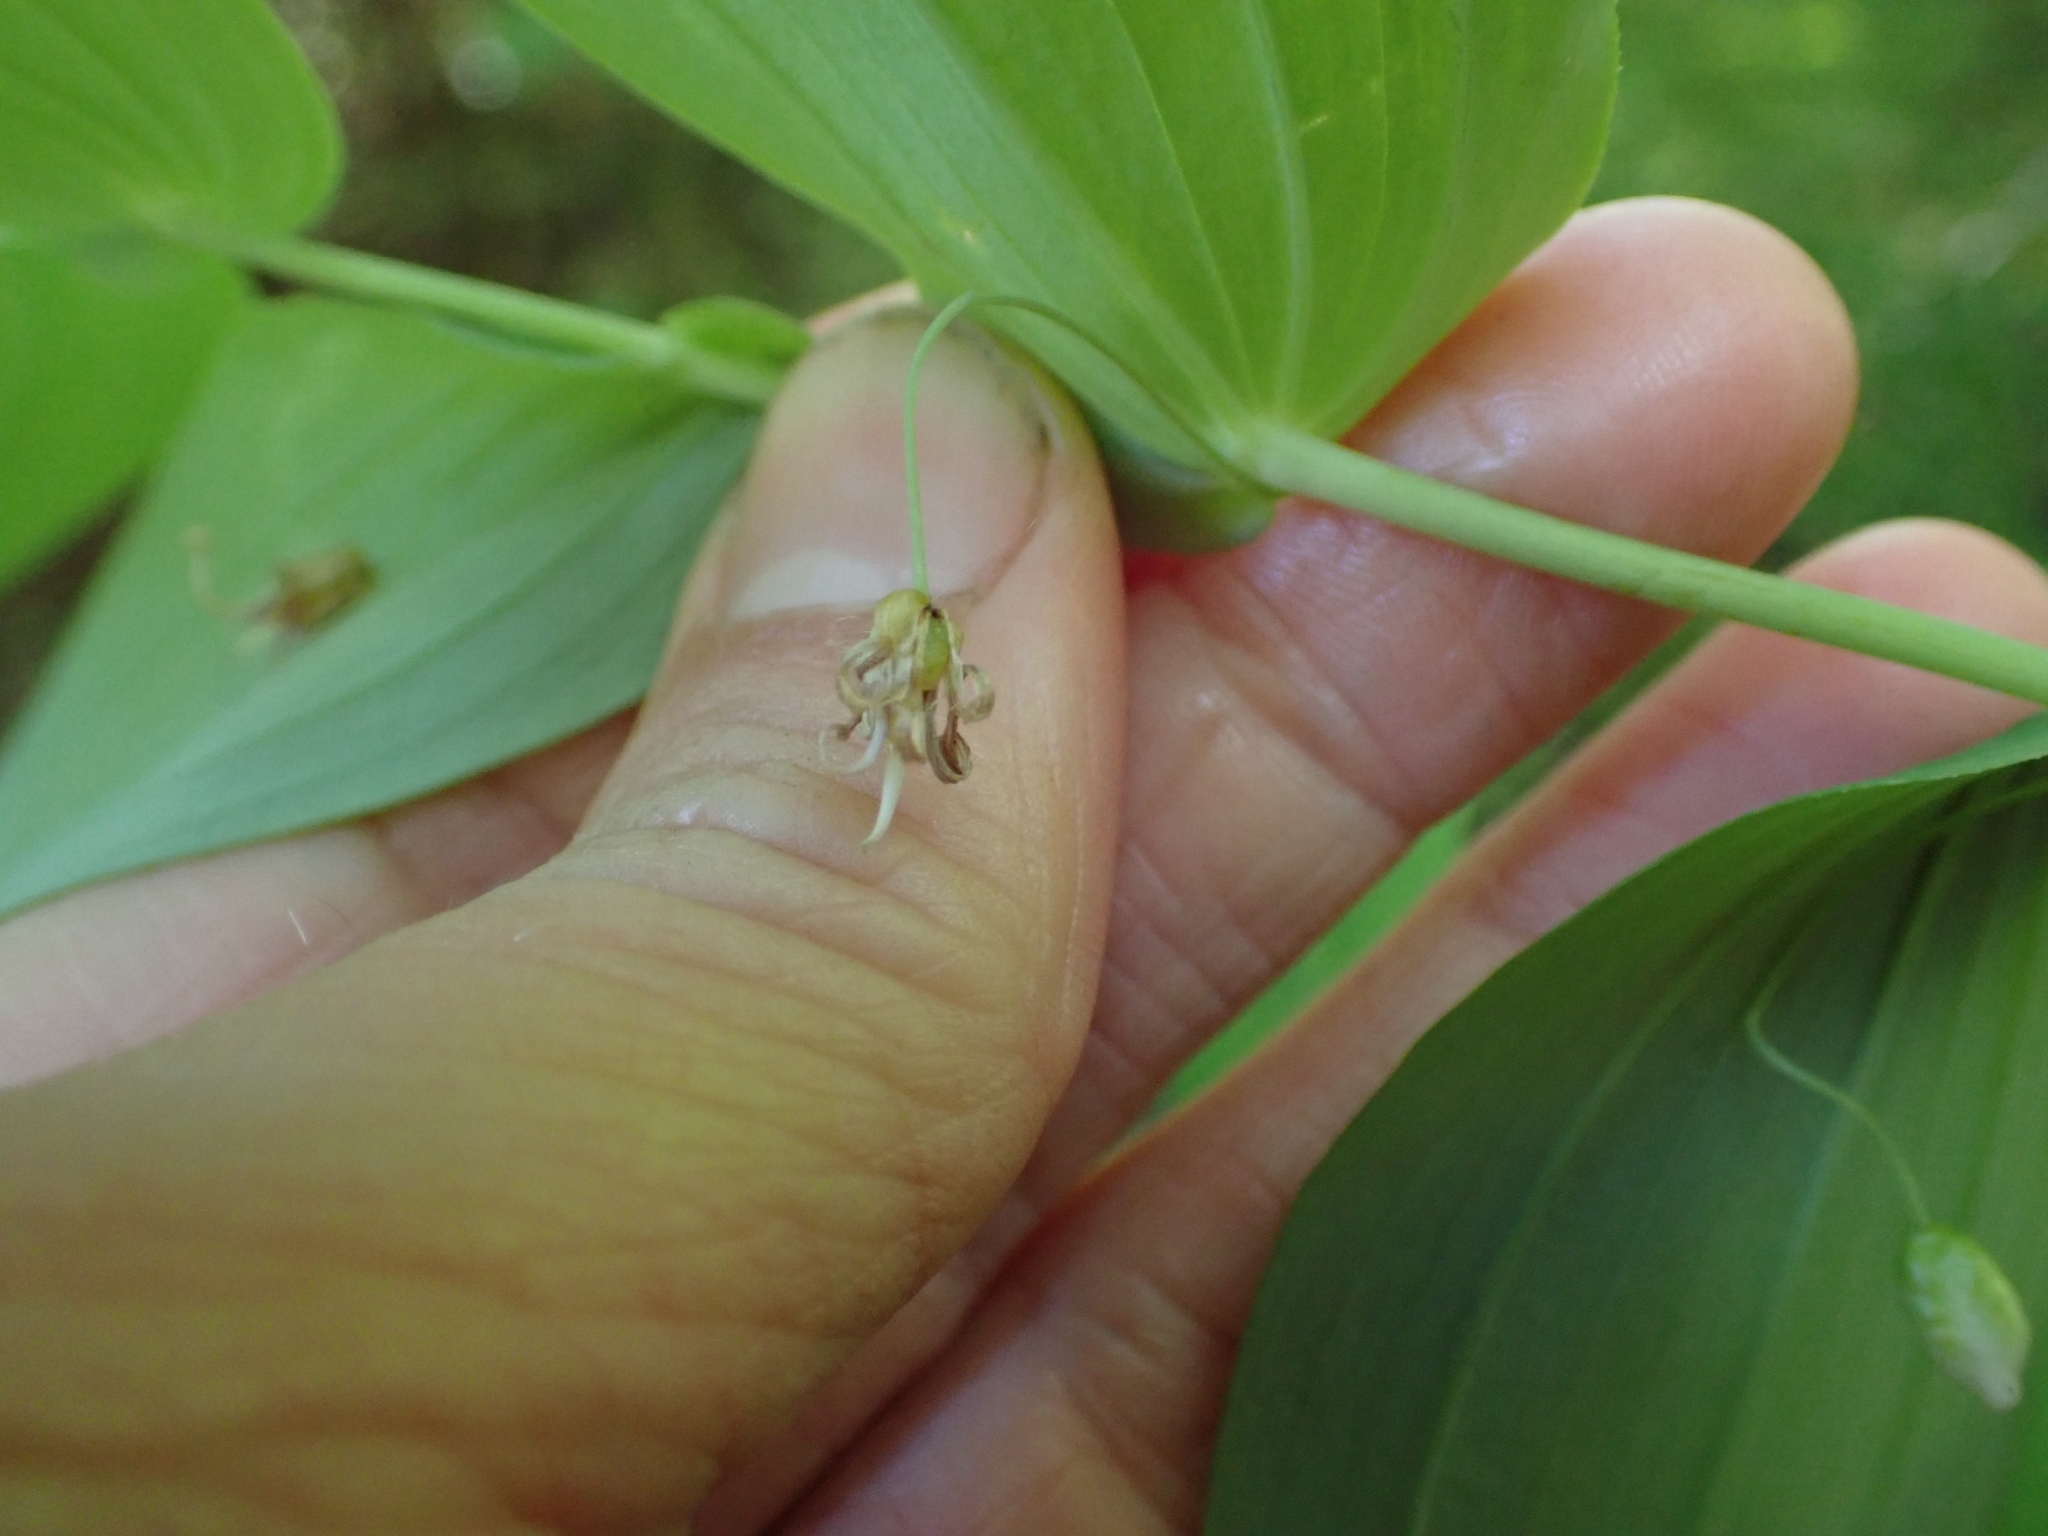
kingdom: Plantae
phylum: Tracheophyta
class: Liliopsida
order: Liliales
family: Liliaceae
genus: Streptopus
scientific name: Streptopus amplexifolius
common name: Clasp twisted stalk
